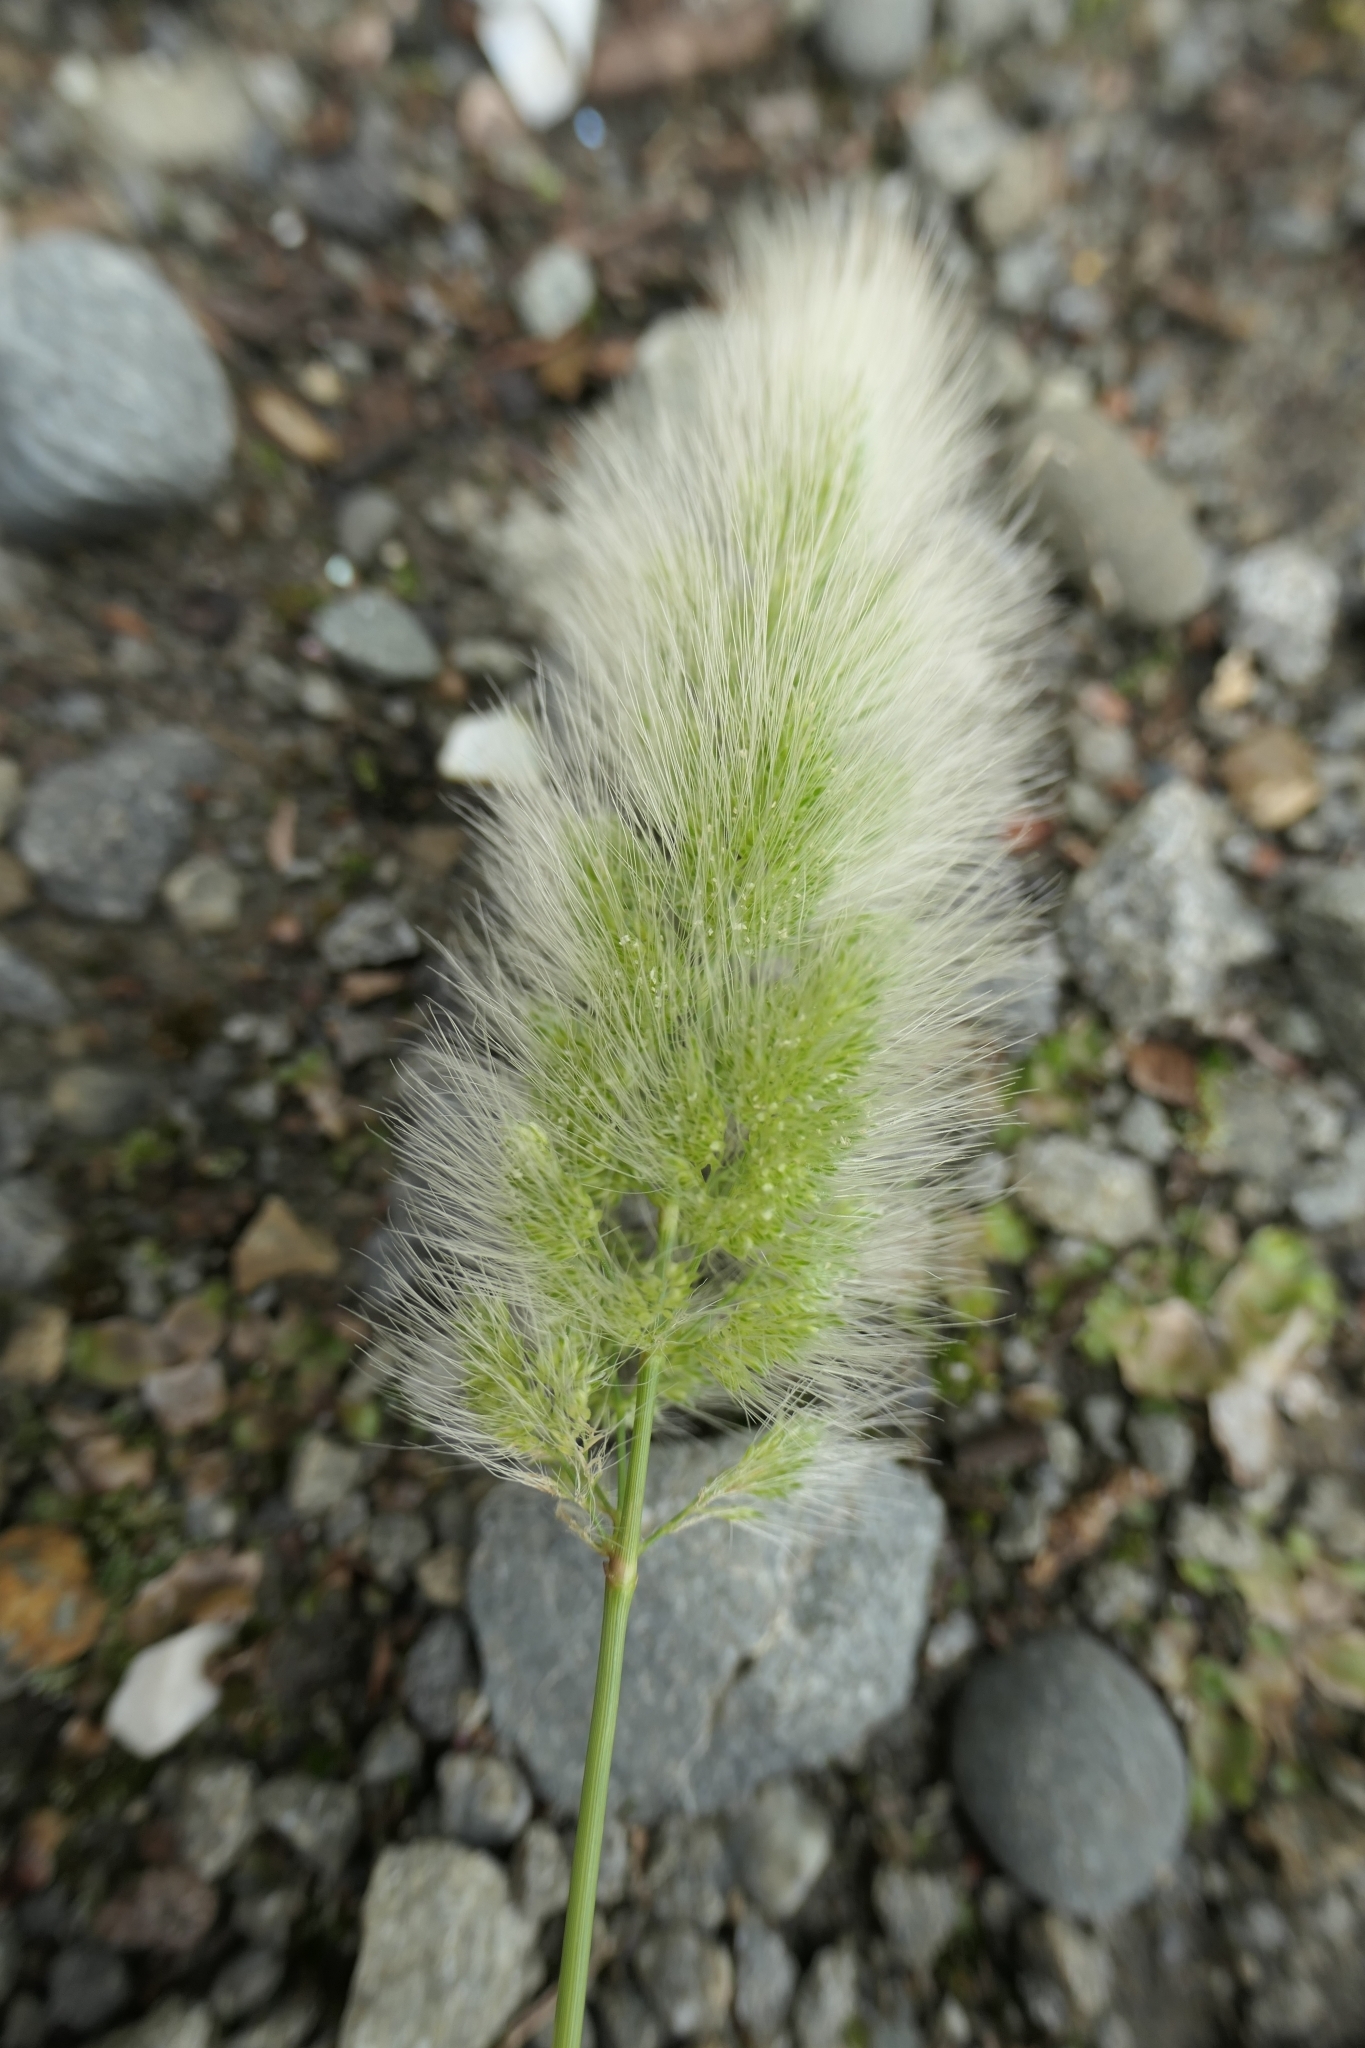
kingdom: Plantae
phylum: Tracheophyta
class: Liliopsida
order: Poales
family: Poaceae
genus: Polypogon
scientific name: Polypogon monspeliensis
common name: Annual rabbitsfoot grass
